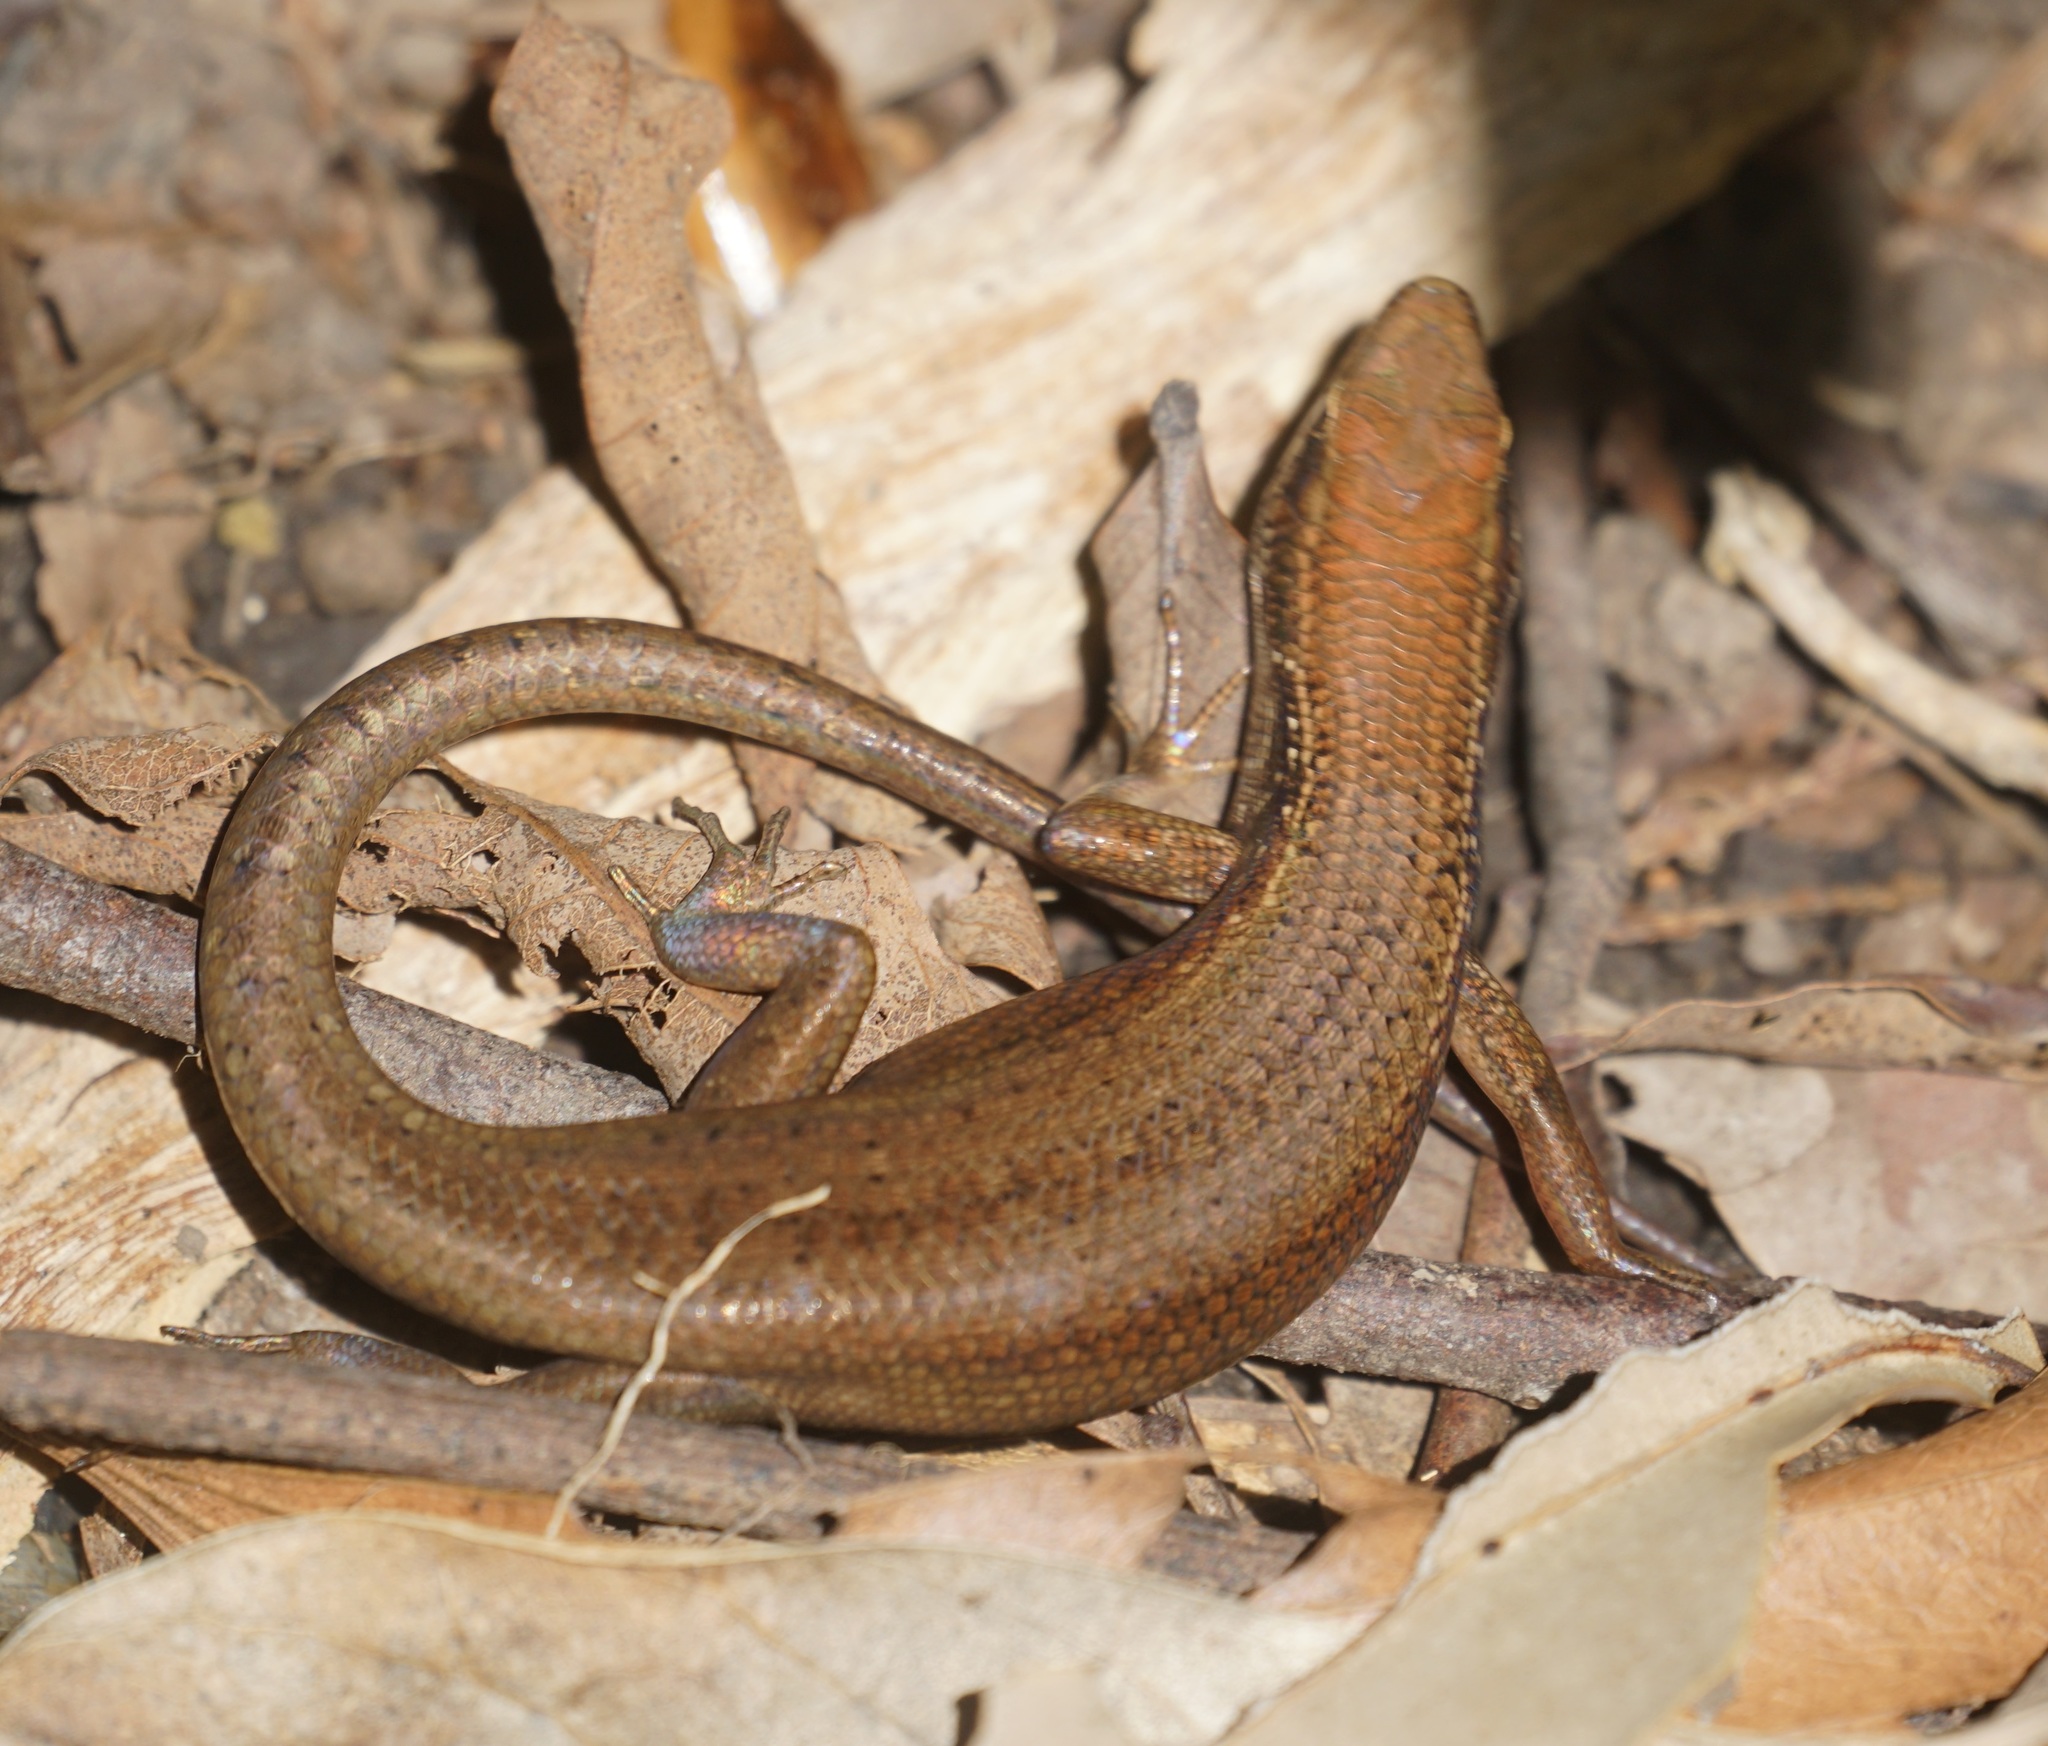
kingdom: Animalia
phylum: Chordata
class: Squamata
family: Scincidae
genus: Carlia
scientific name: Carlia longipes
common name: Closed-litter rainbow-skink
